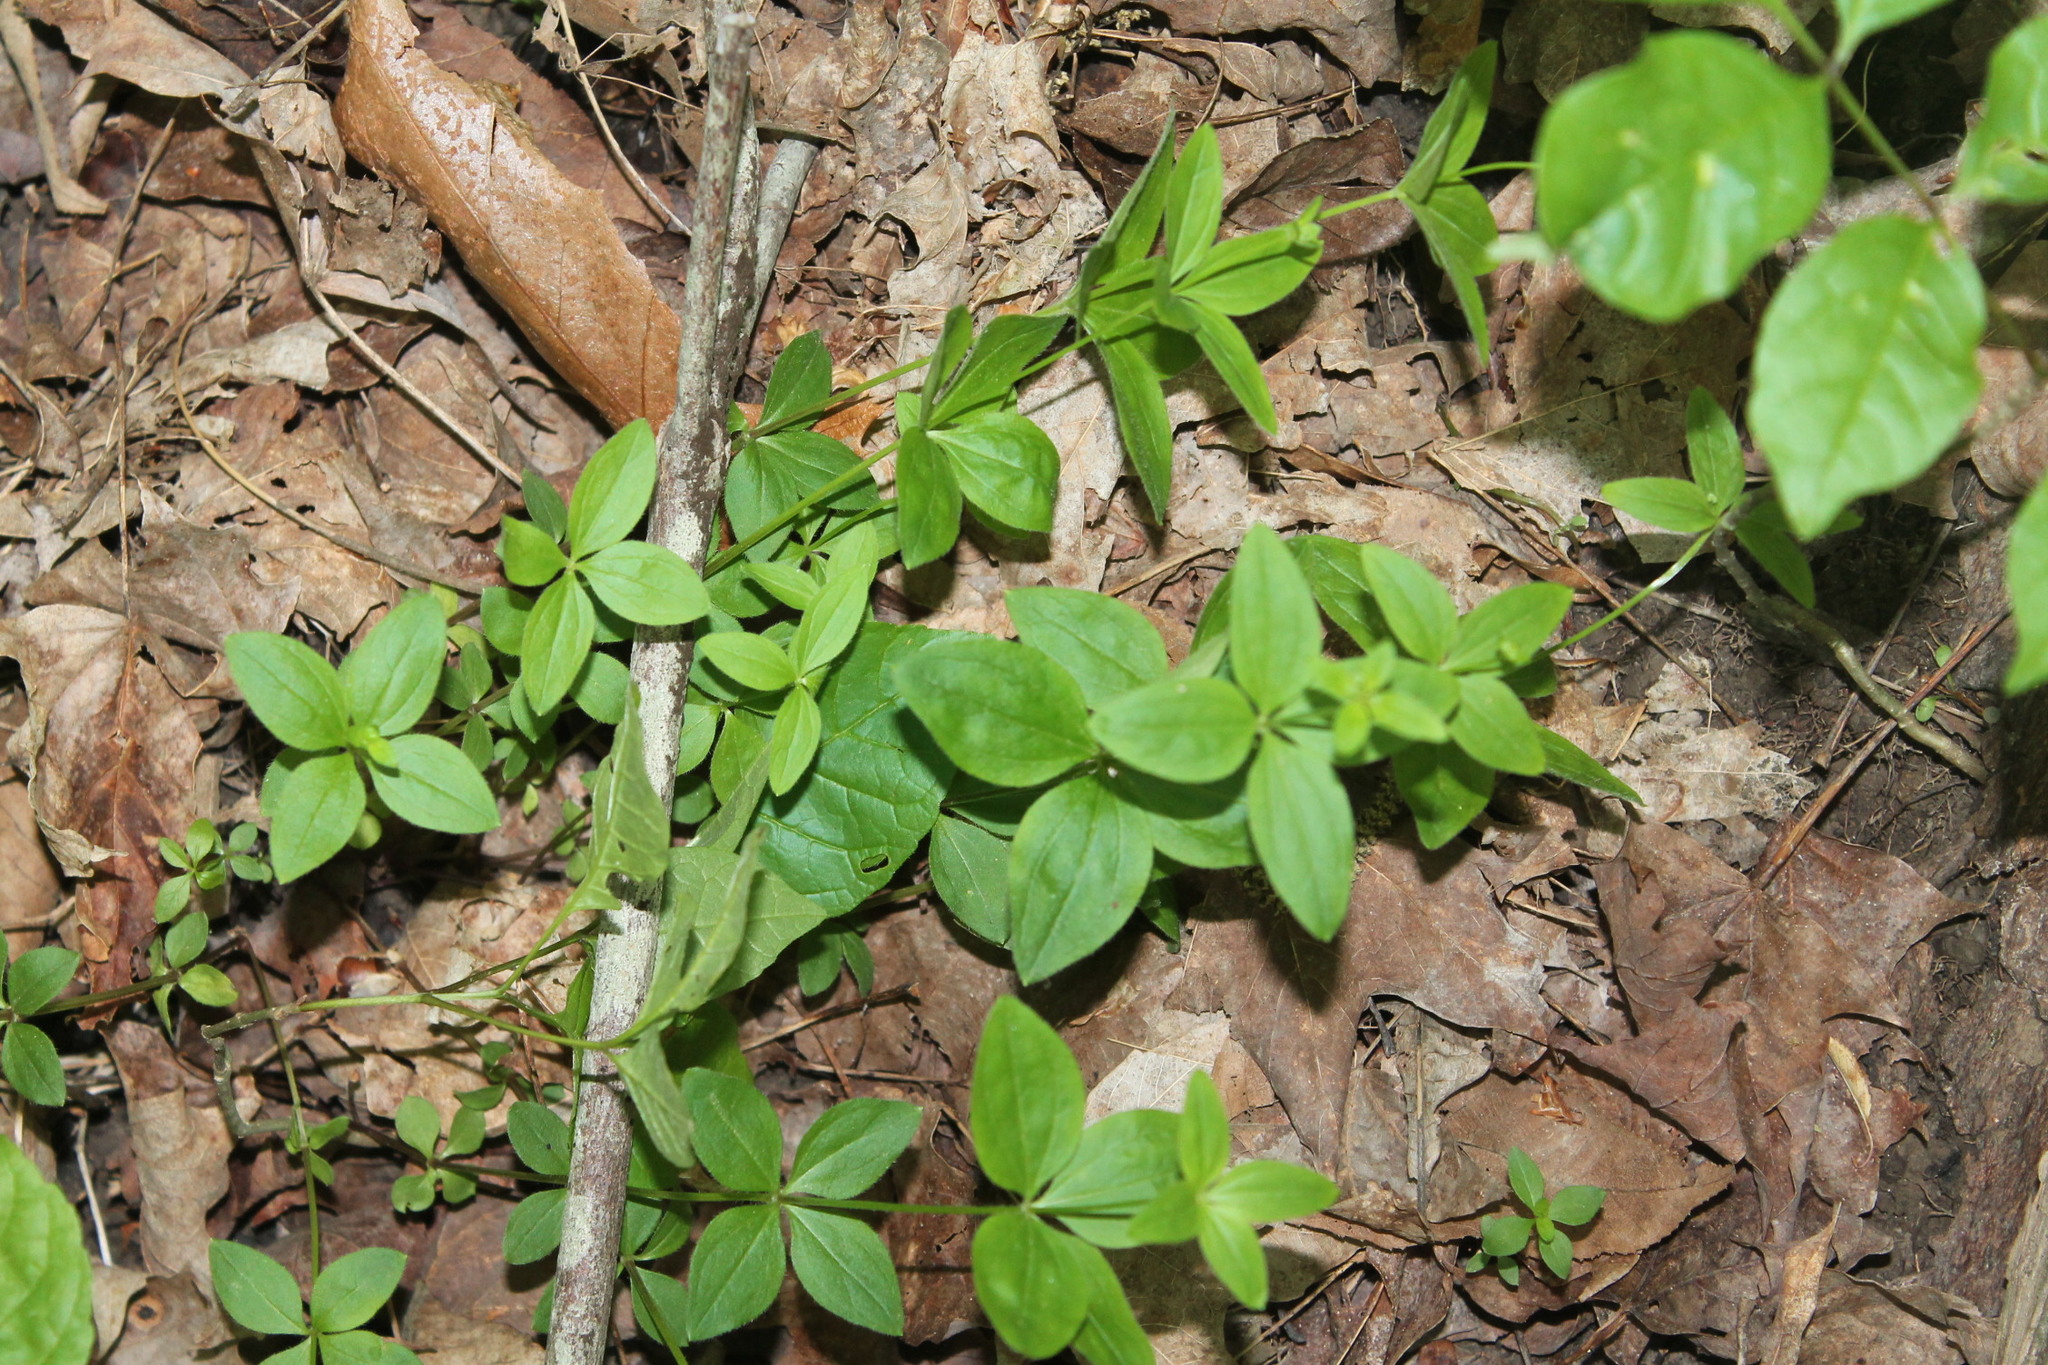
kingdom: Plantae
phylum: Tracheophyta
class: Magnoliopsida
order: Gentianales
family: Rubiaceae
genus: Galium
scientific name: Galium circaezans
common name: Forest bedstraw
